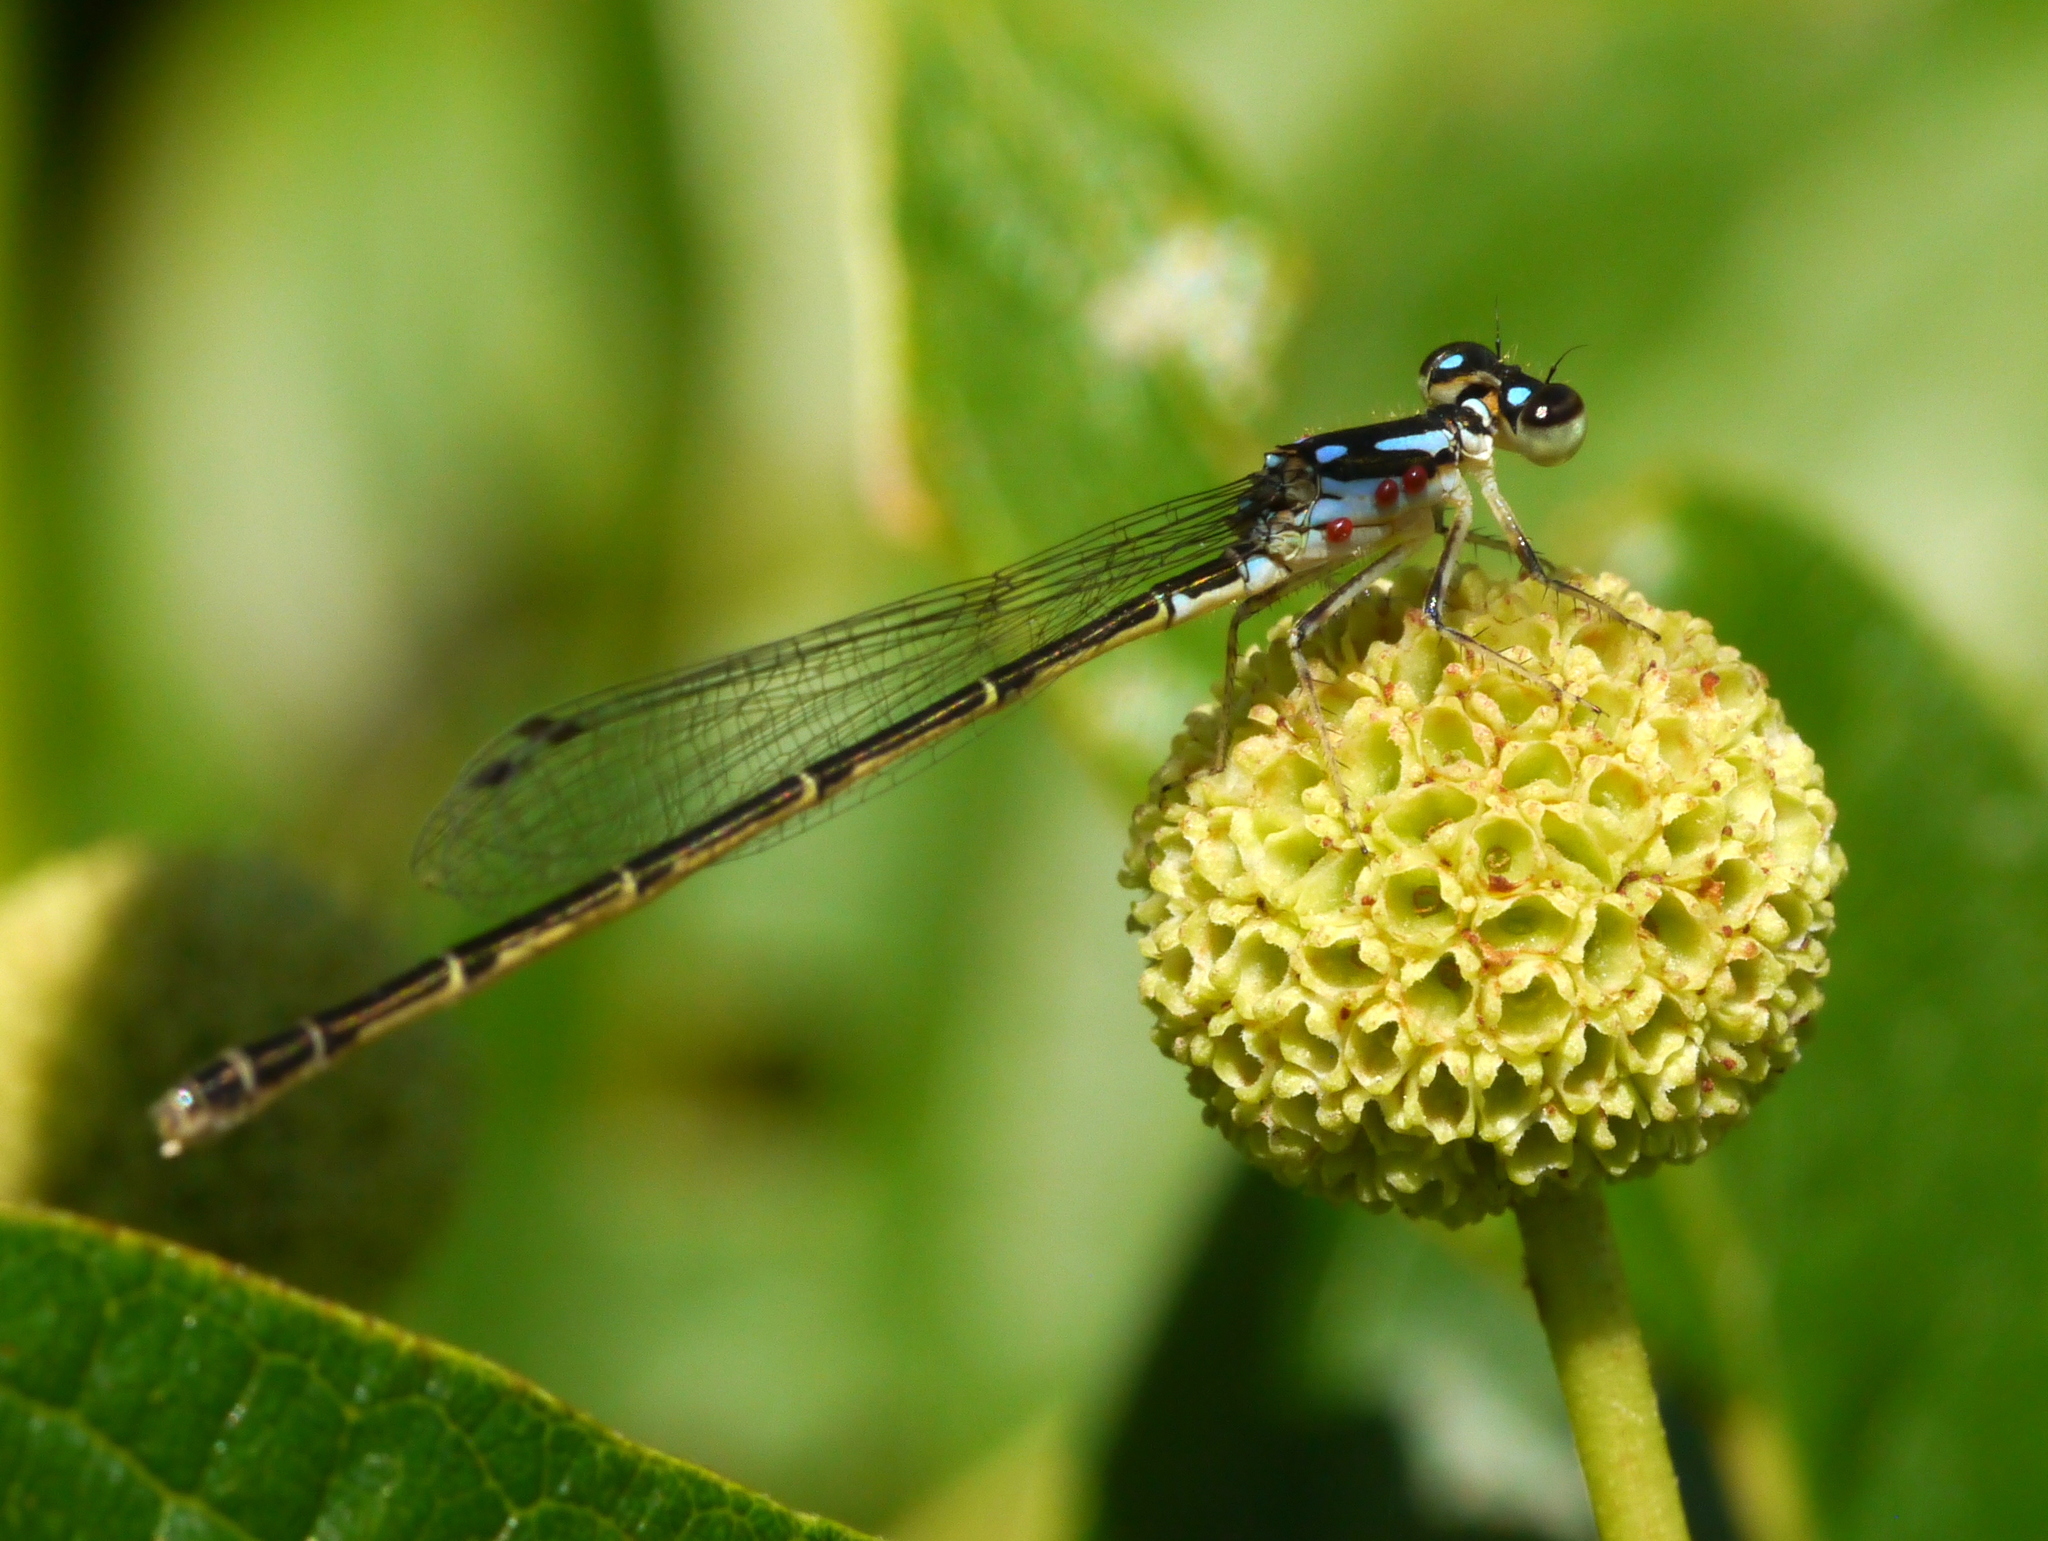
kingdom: Animalia
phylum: Arthropoda
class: Insecta
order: Odonata
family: Coenagrionidae
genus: Ischnura
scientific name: Ischnura posita
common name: Fragile forktail
